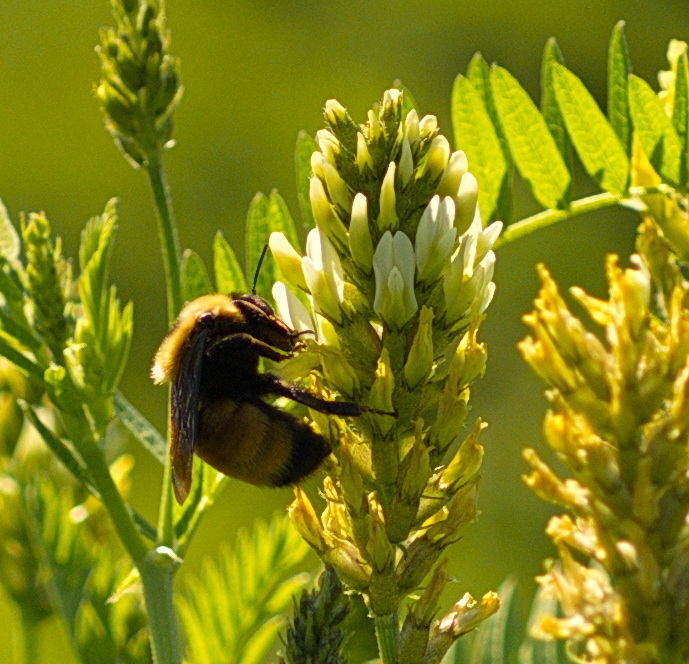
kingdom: Animalia
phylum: Arthropoda
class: Insecta
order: Hymenoptera
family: Apidae
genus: Bombus
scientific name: Bombus nevadensis
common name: Nevada bumble bee
